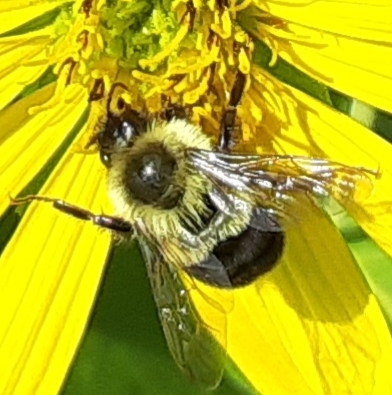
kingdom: Animalia
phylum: Arthropoda
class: Insecta
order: Hymenoptera
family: Apidae
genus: Bombus
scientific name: Bombus impatiens
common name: Common eastern bumble bee
